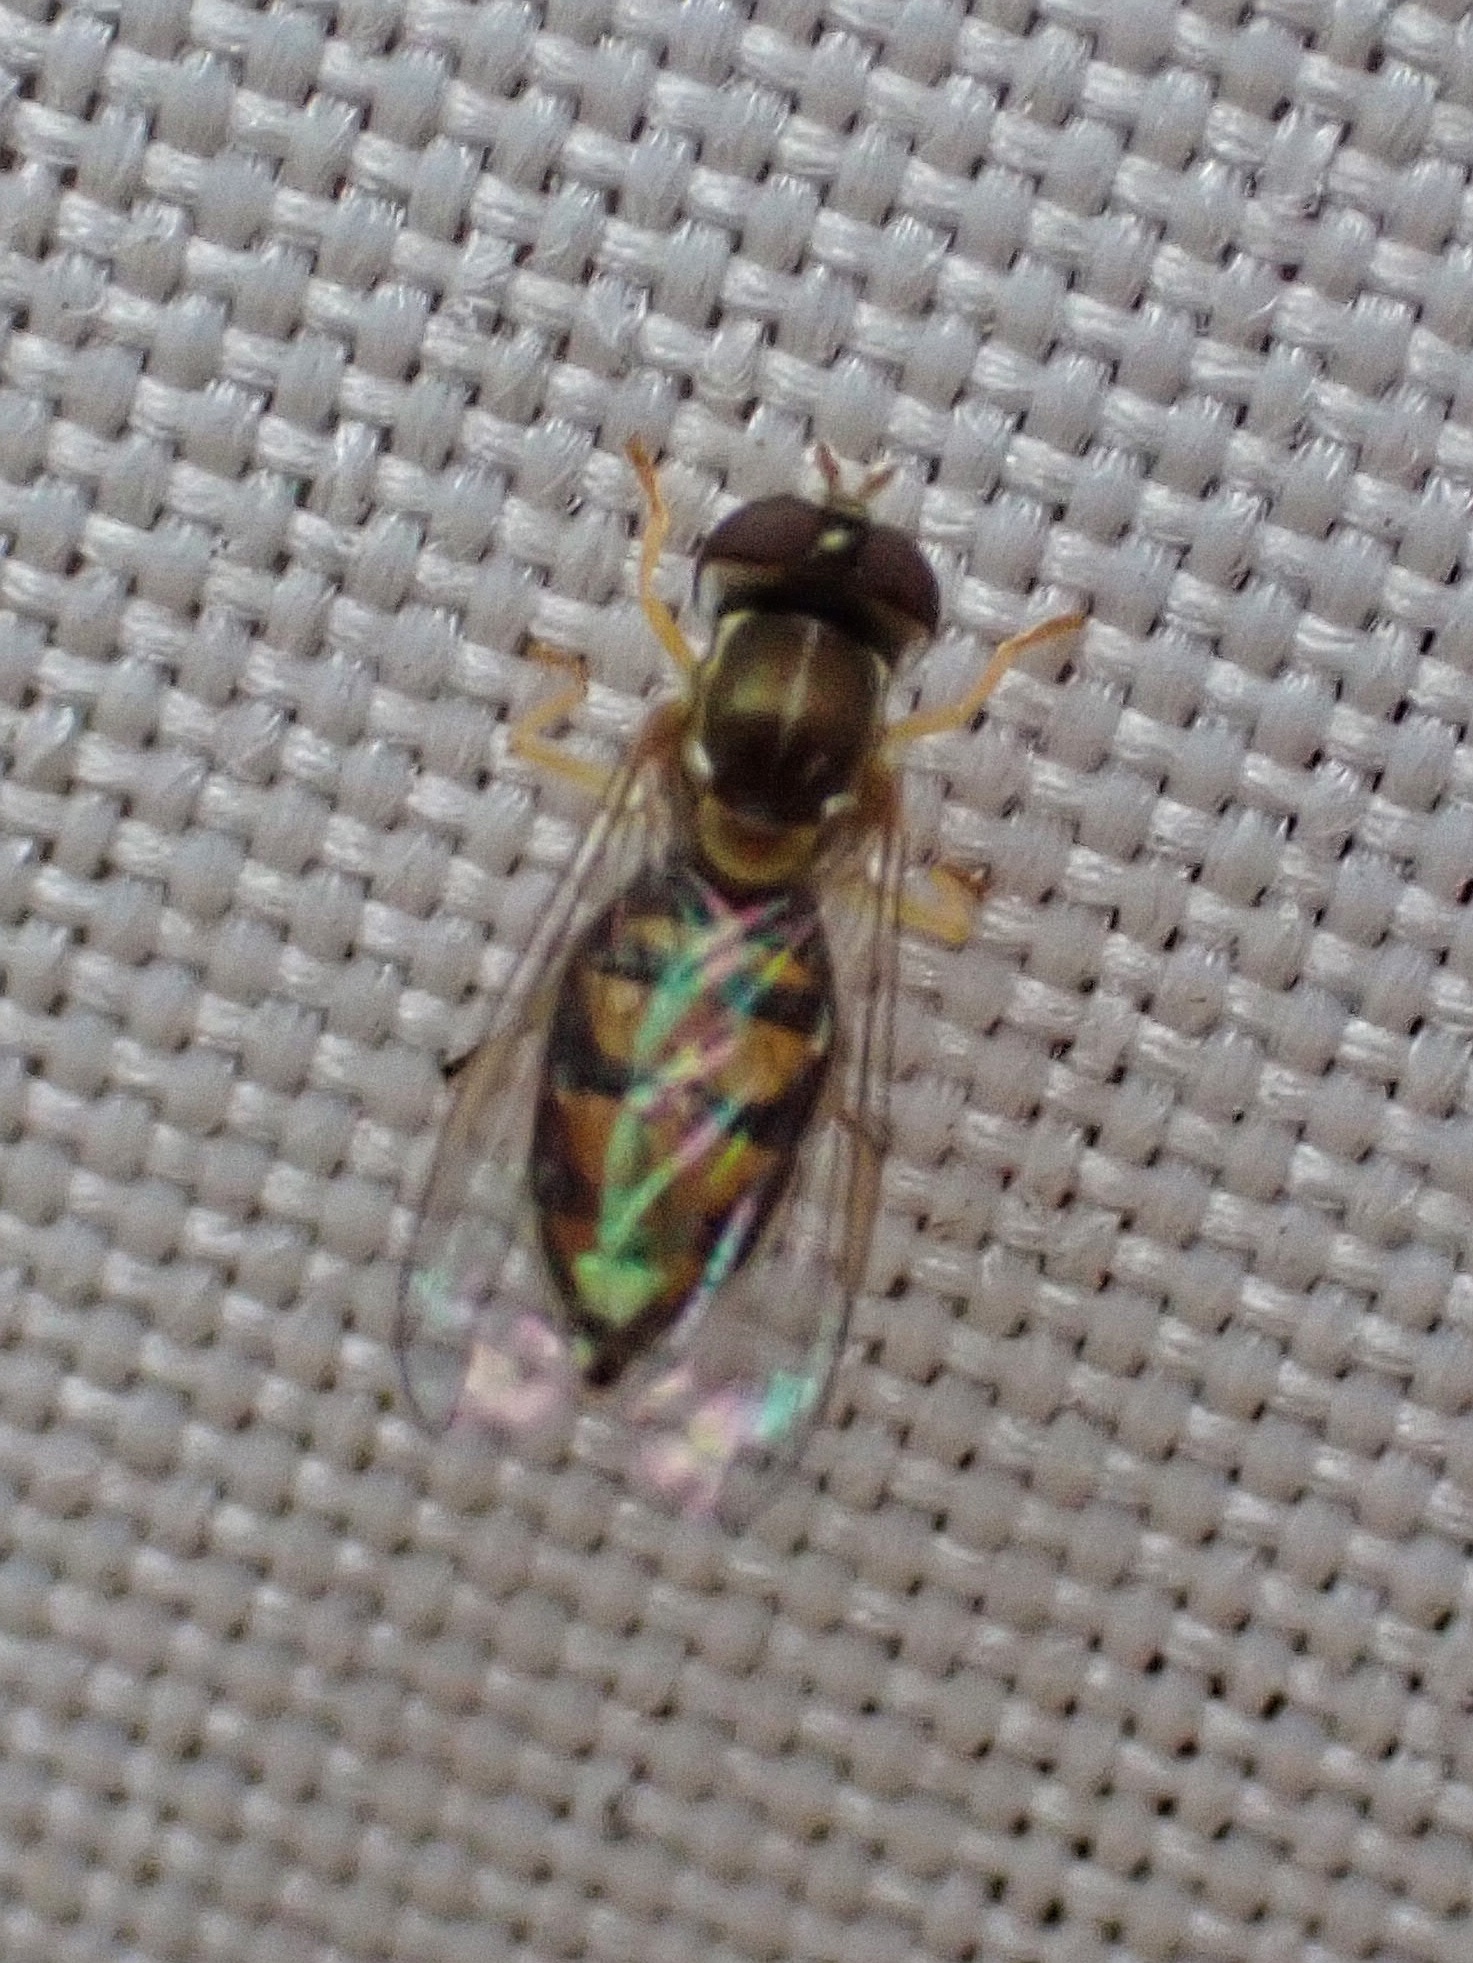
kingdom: Animalia
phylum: Arthropoda
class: Insecta
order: Diptera
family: Syrphidae
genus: Toxomerus
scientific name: Toxomerus marginatus
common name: Syrphid fly
